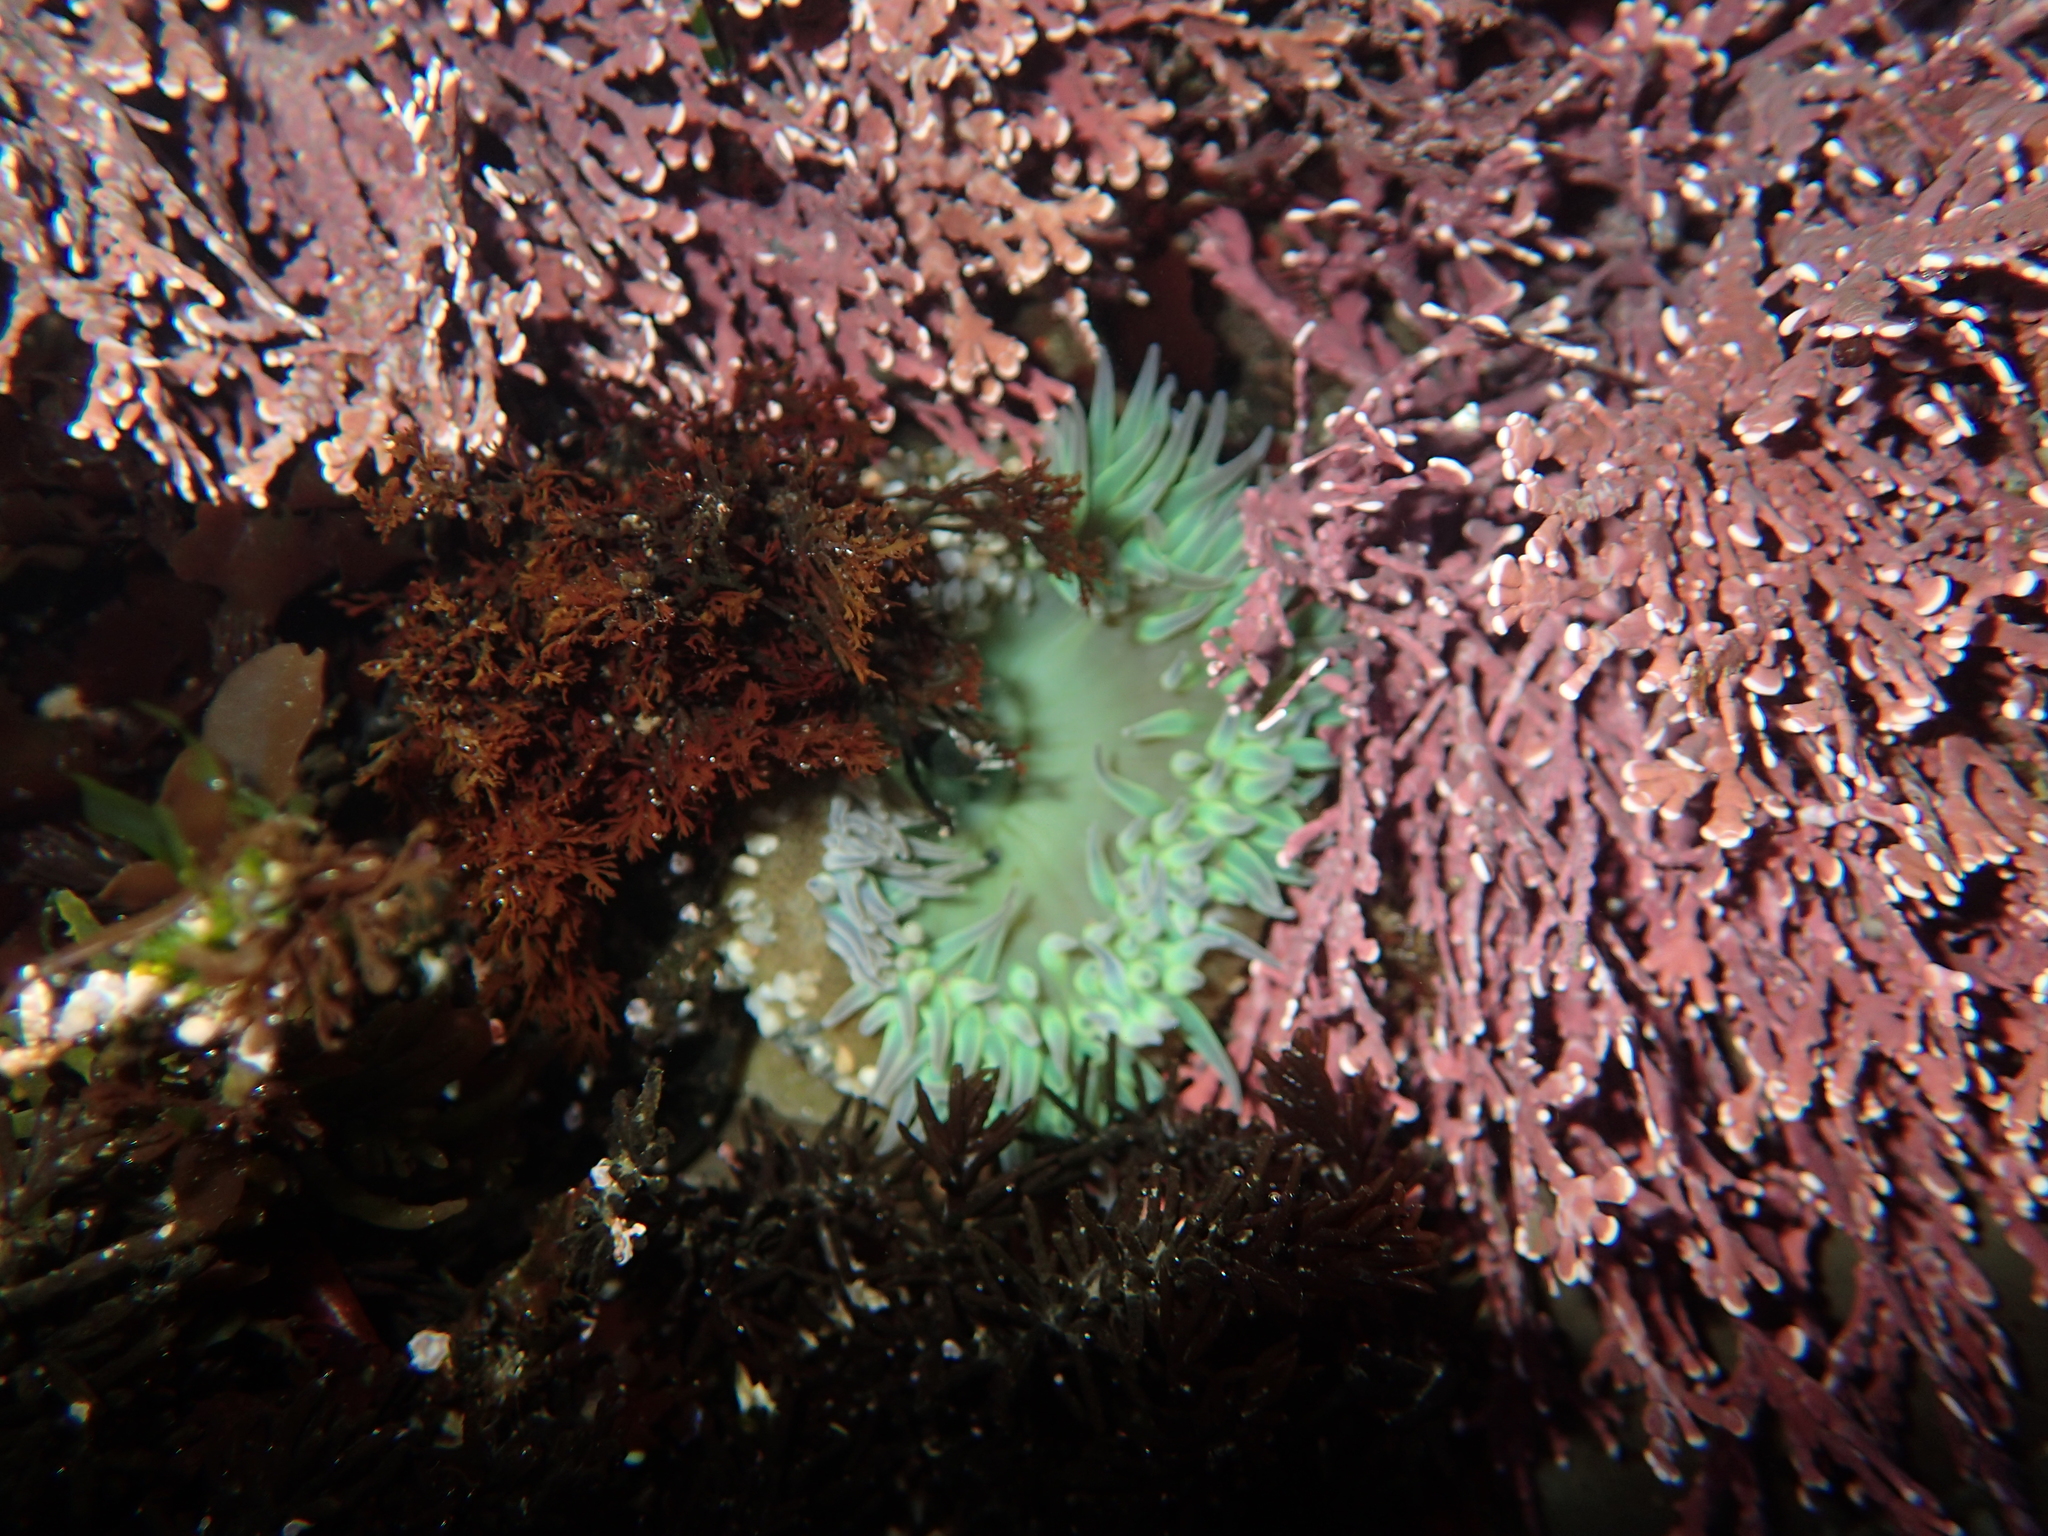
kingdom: Animalia
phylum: Cnidaria
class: Anthozoa
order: Actiniaria
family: Actiniidae
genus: Anthopleura
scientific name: Anthopleura xanthogrammica
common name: Giant green anemone
